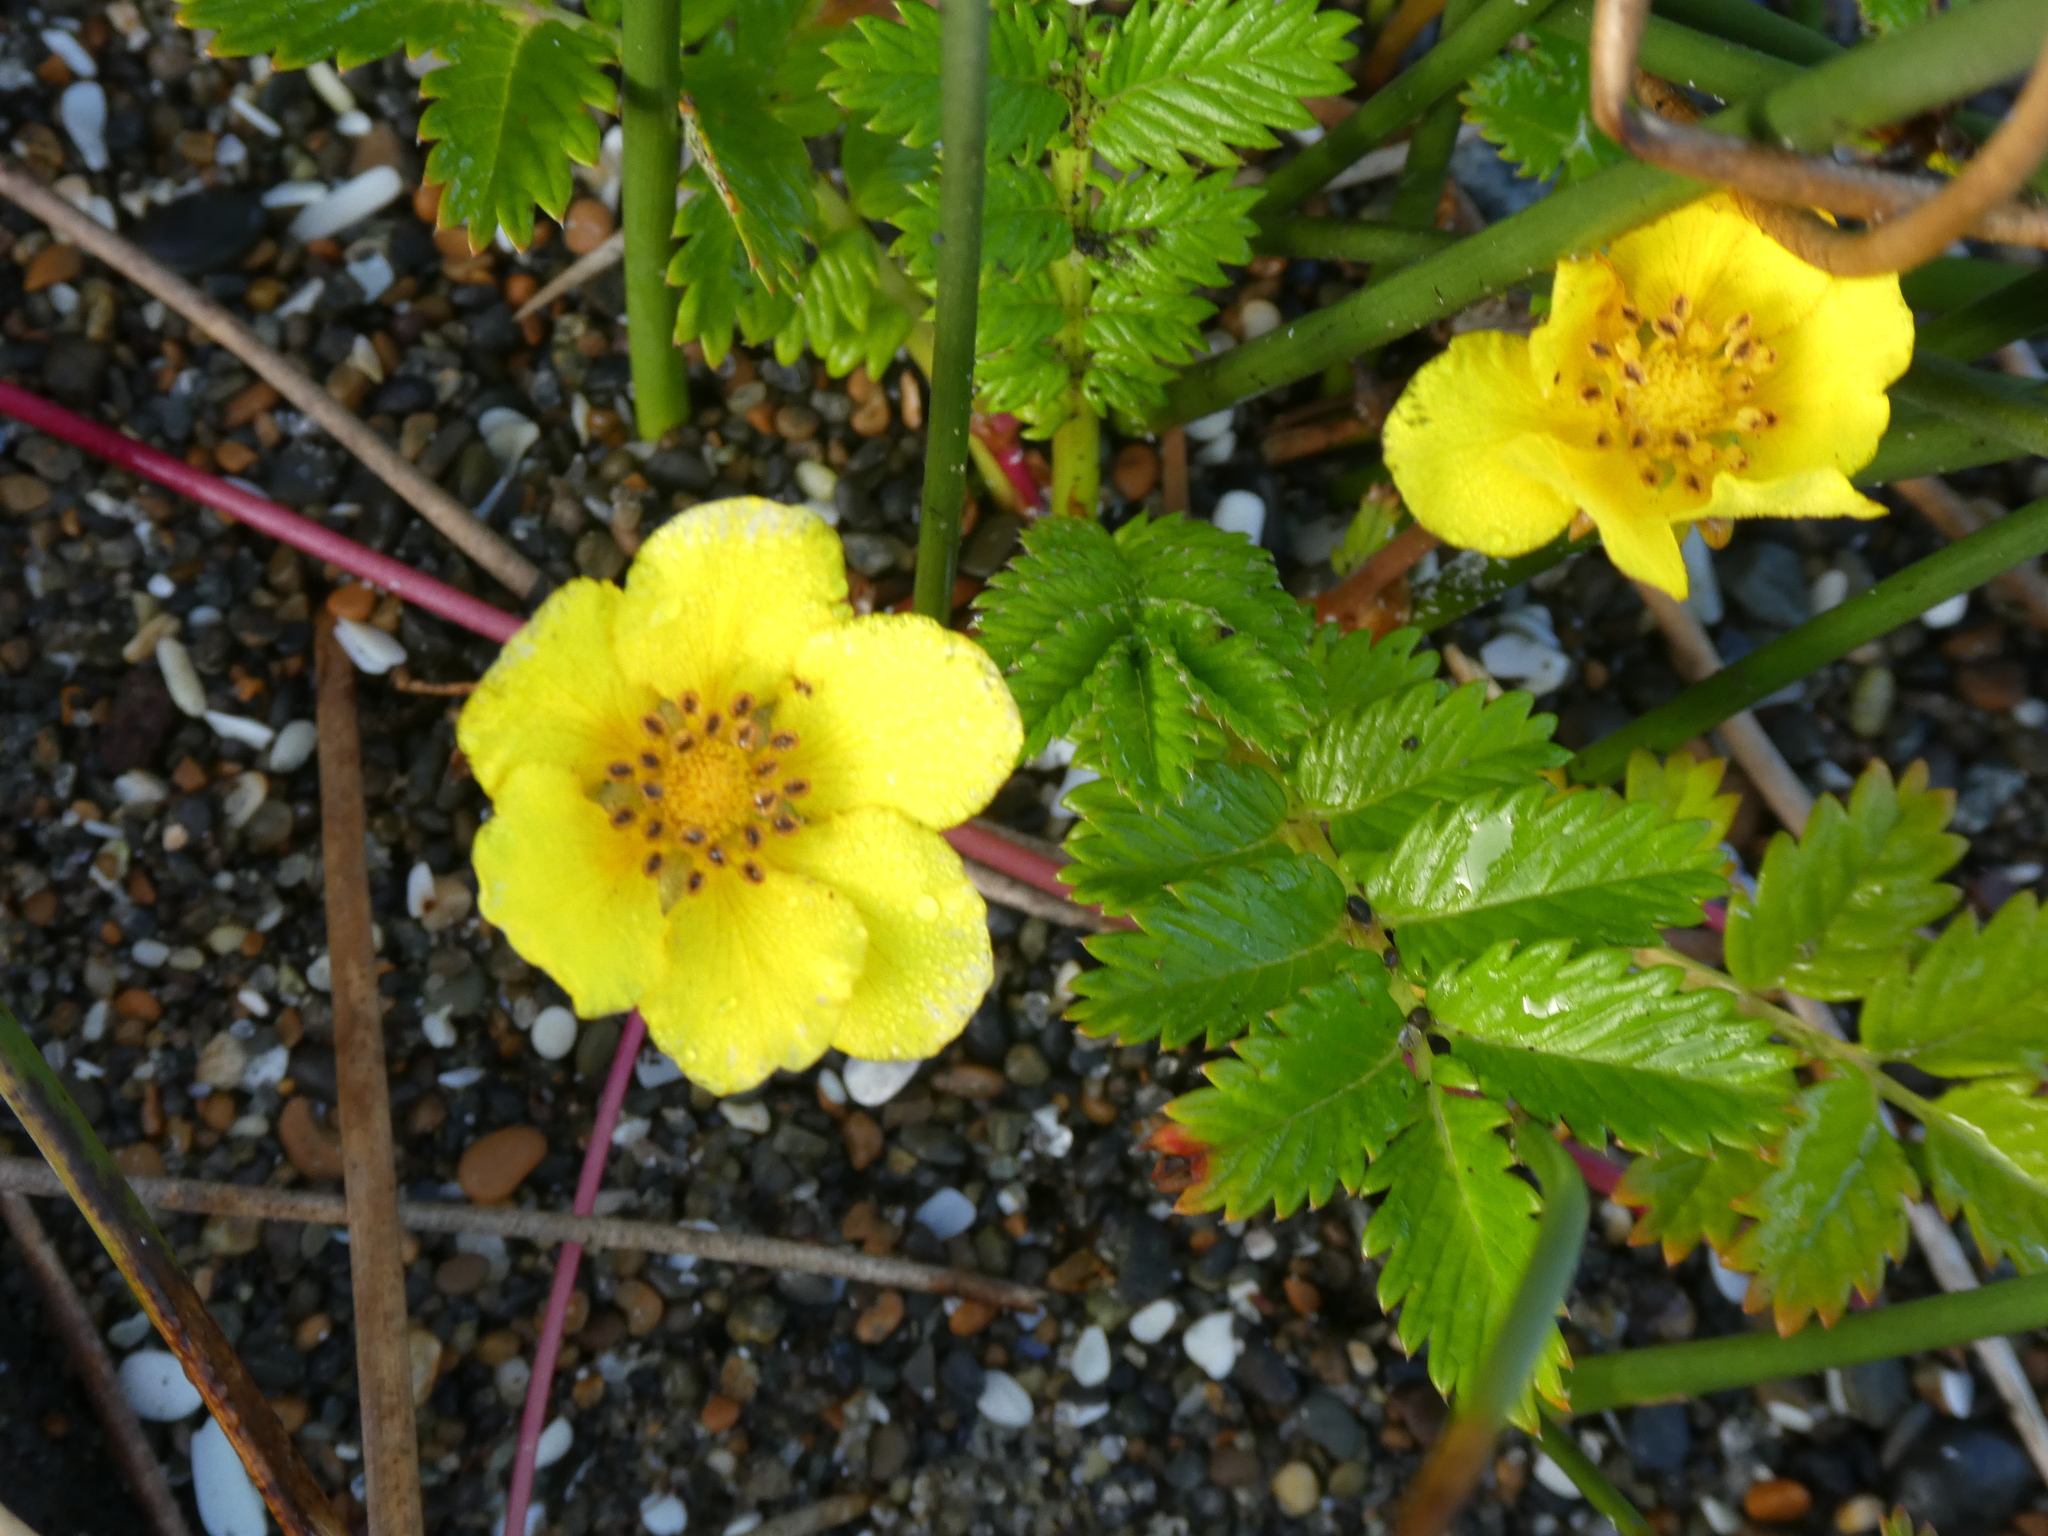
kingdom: Plantae
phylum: Tracheophyta
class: Magnoliopsida
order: Rosales
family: Rosaceae
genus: Argentina
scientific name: Argentina anserina
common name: Common silverweed
